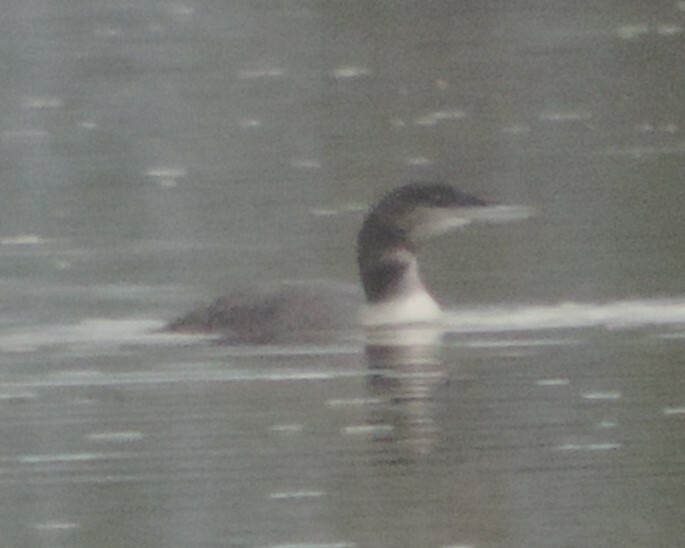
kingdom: Animalia
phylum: Chordata
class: Aves
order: Gaviiformes
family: Gaviidae
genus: Gavia
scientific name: Gavia immer
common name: Common loon
